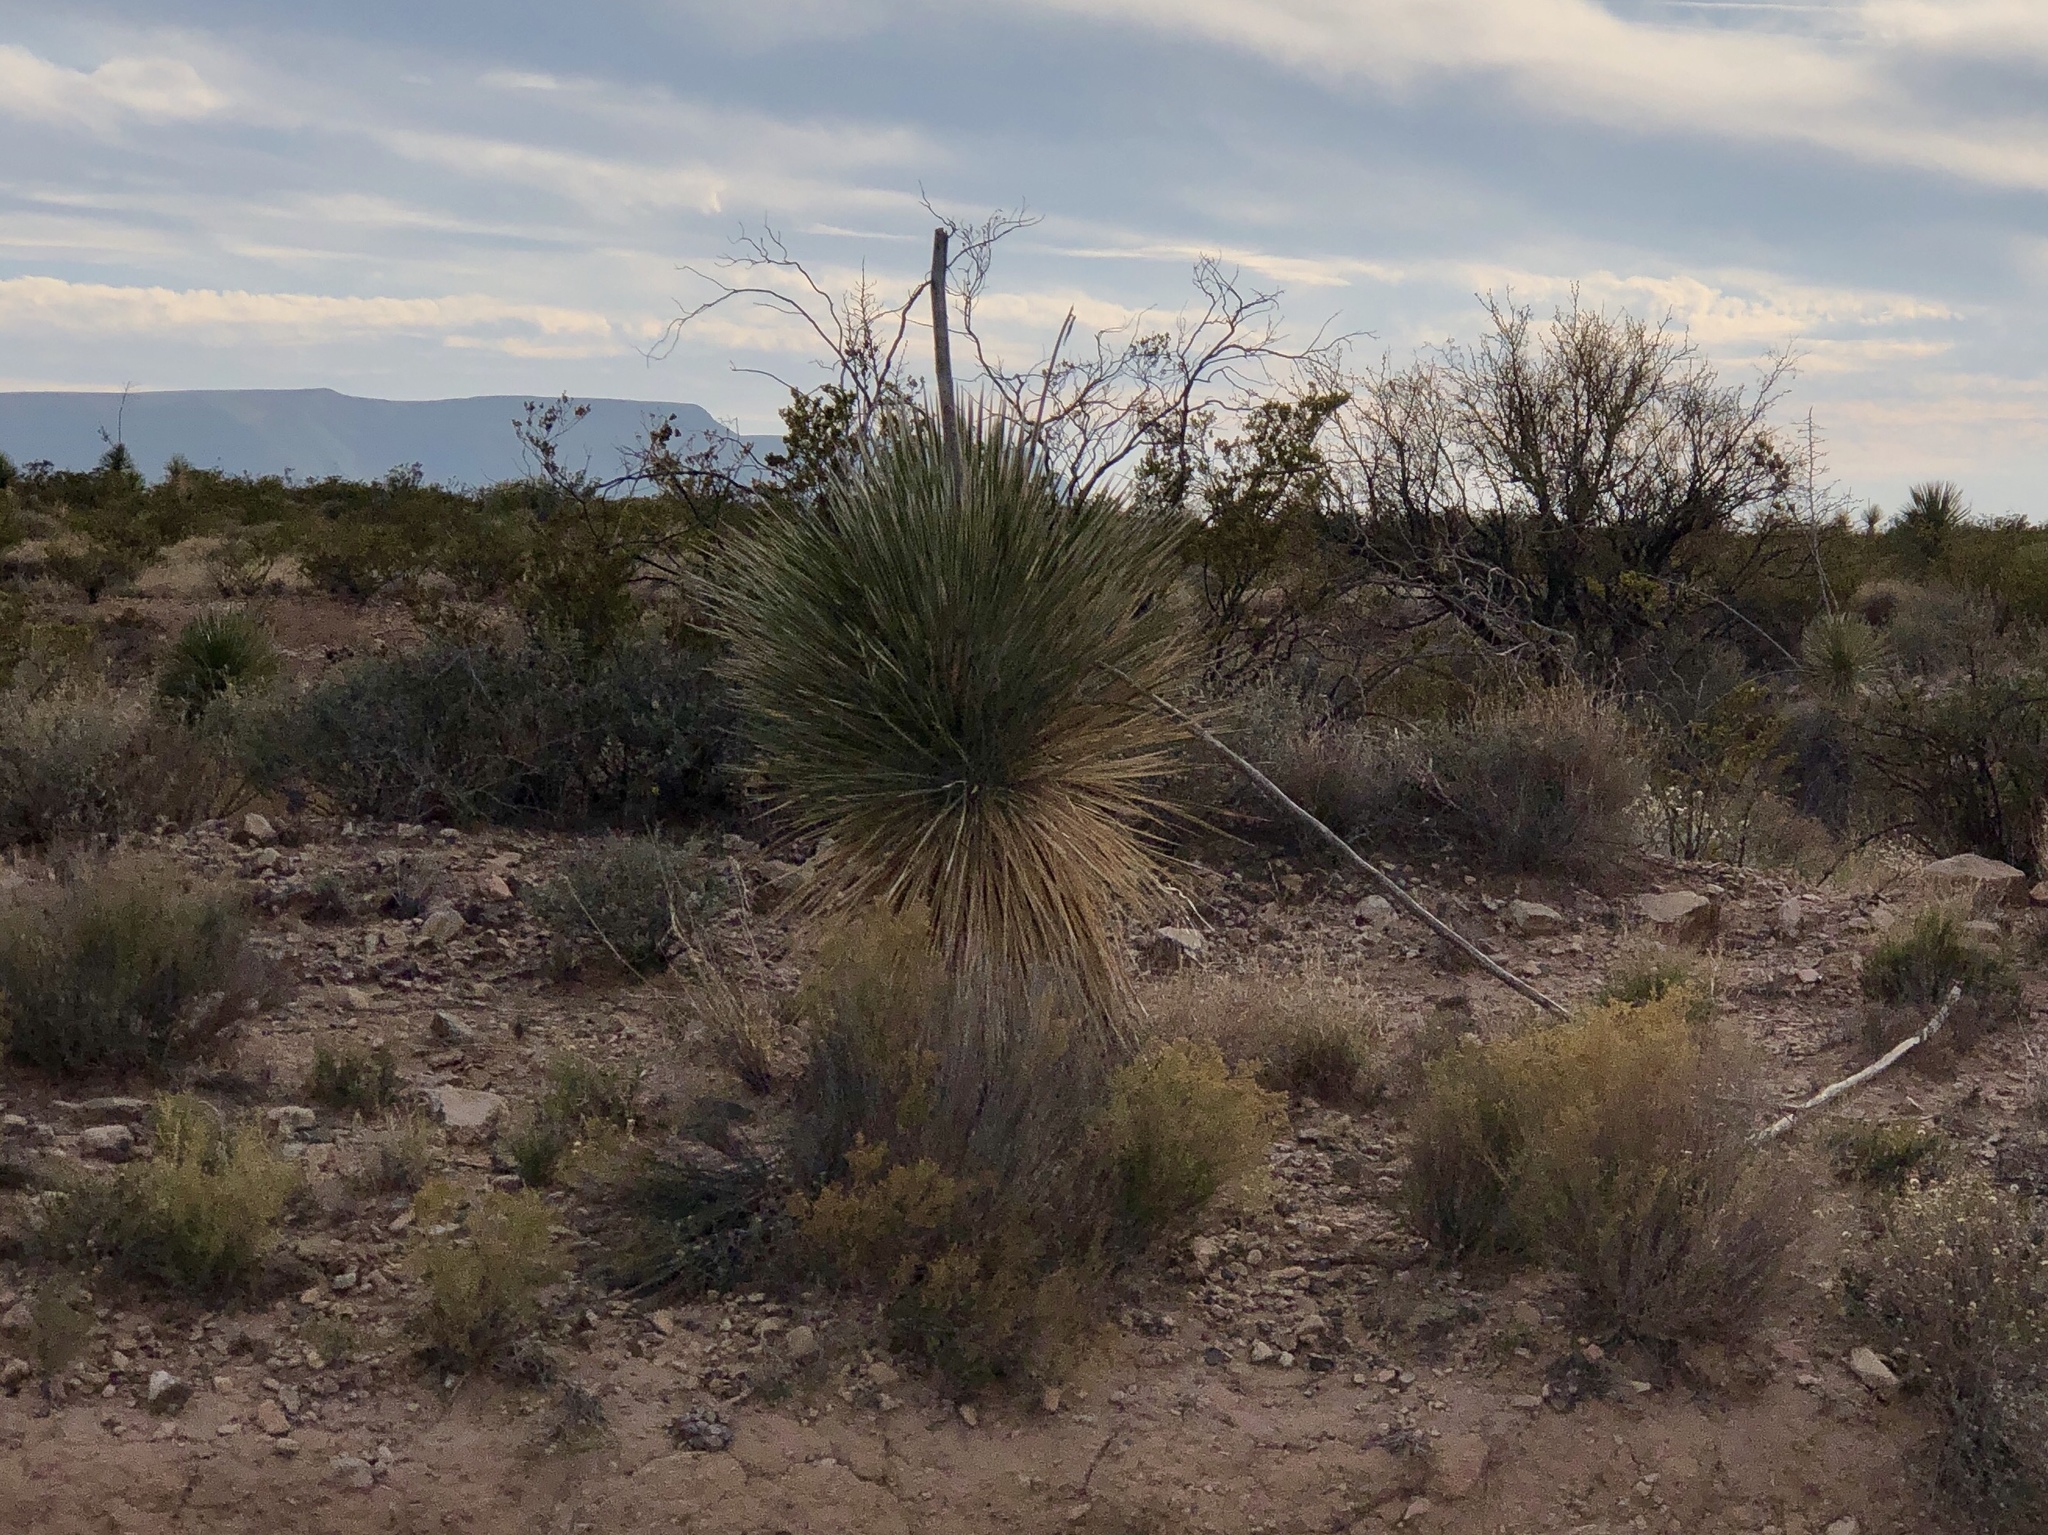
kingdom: Plantae
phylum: Tracheophyta
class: Liliopsida
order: Asparagales
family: Asparagaceae
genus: Yucca
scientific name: Yucca elata
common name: Palmella
